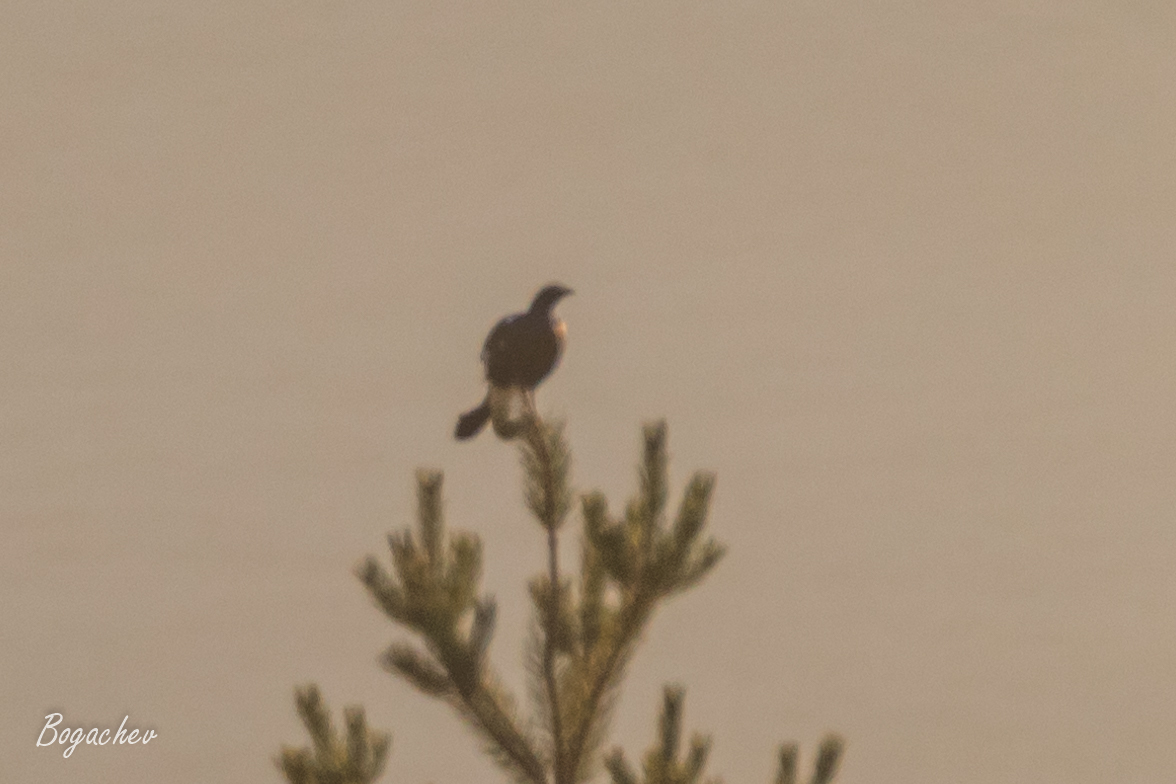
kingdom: Animalia
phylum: Chordata
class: Aves
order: Galliformes
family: Phasianidae
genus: Lyrurus
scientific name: Lyrurus tetrix
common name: Black grouse
